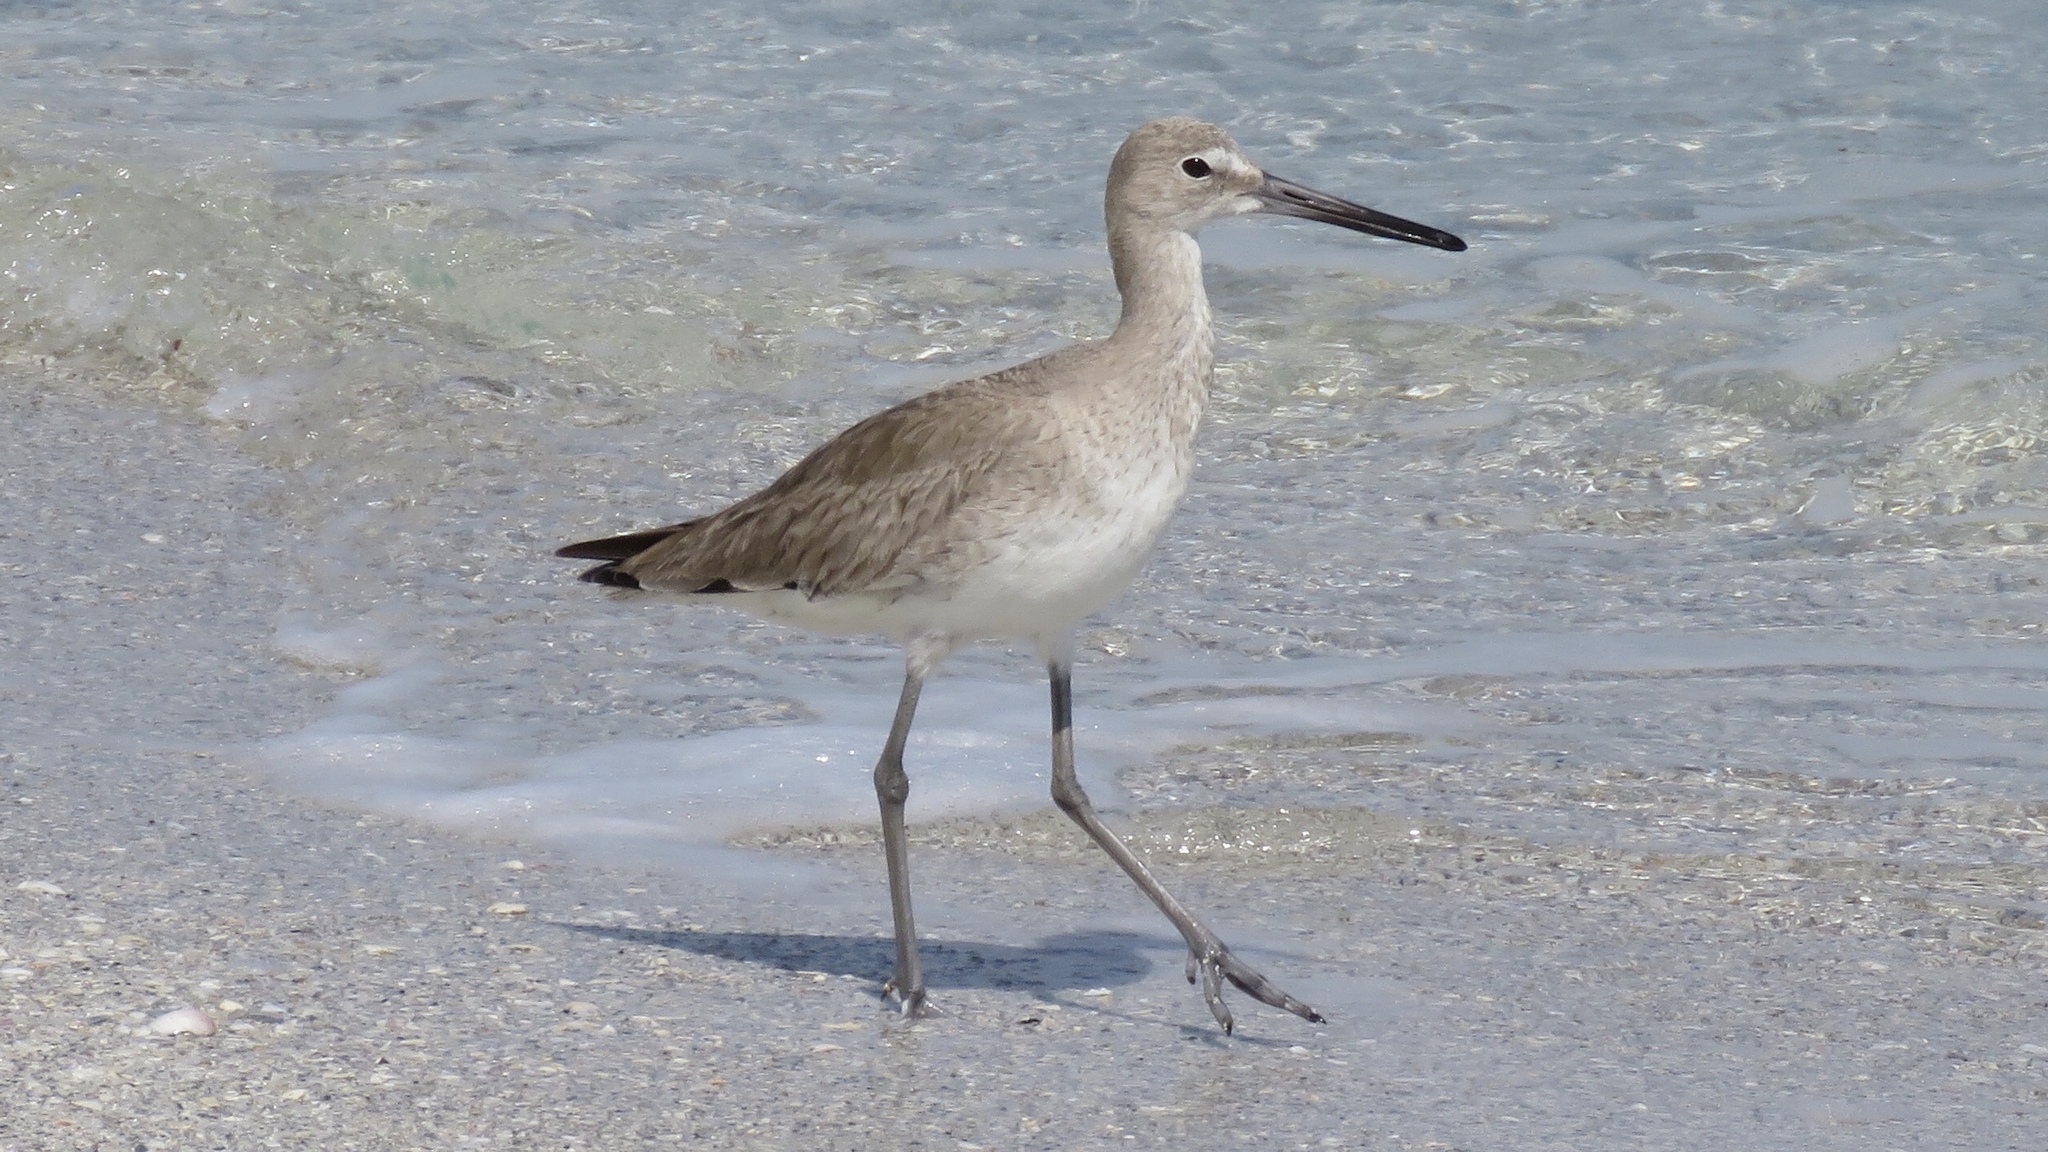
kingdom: Animalia
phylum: Chordata
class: Aves
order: Charadriiformes
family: Scolopacidae
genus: Tringa
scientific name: Tringa semipalmata
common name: Willet
